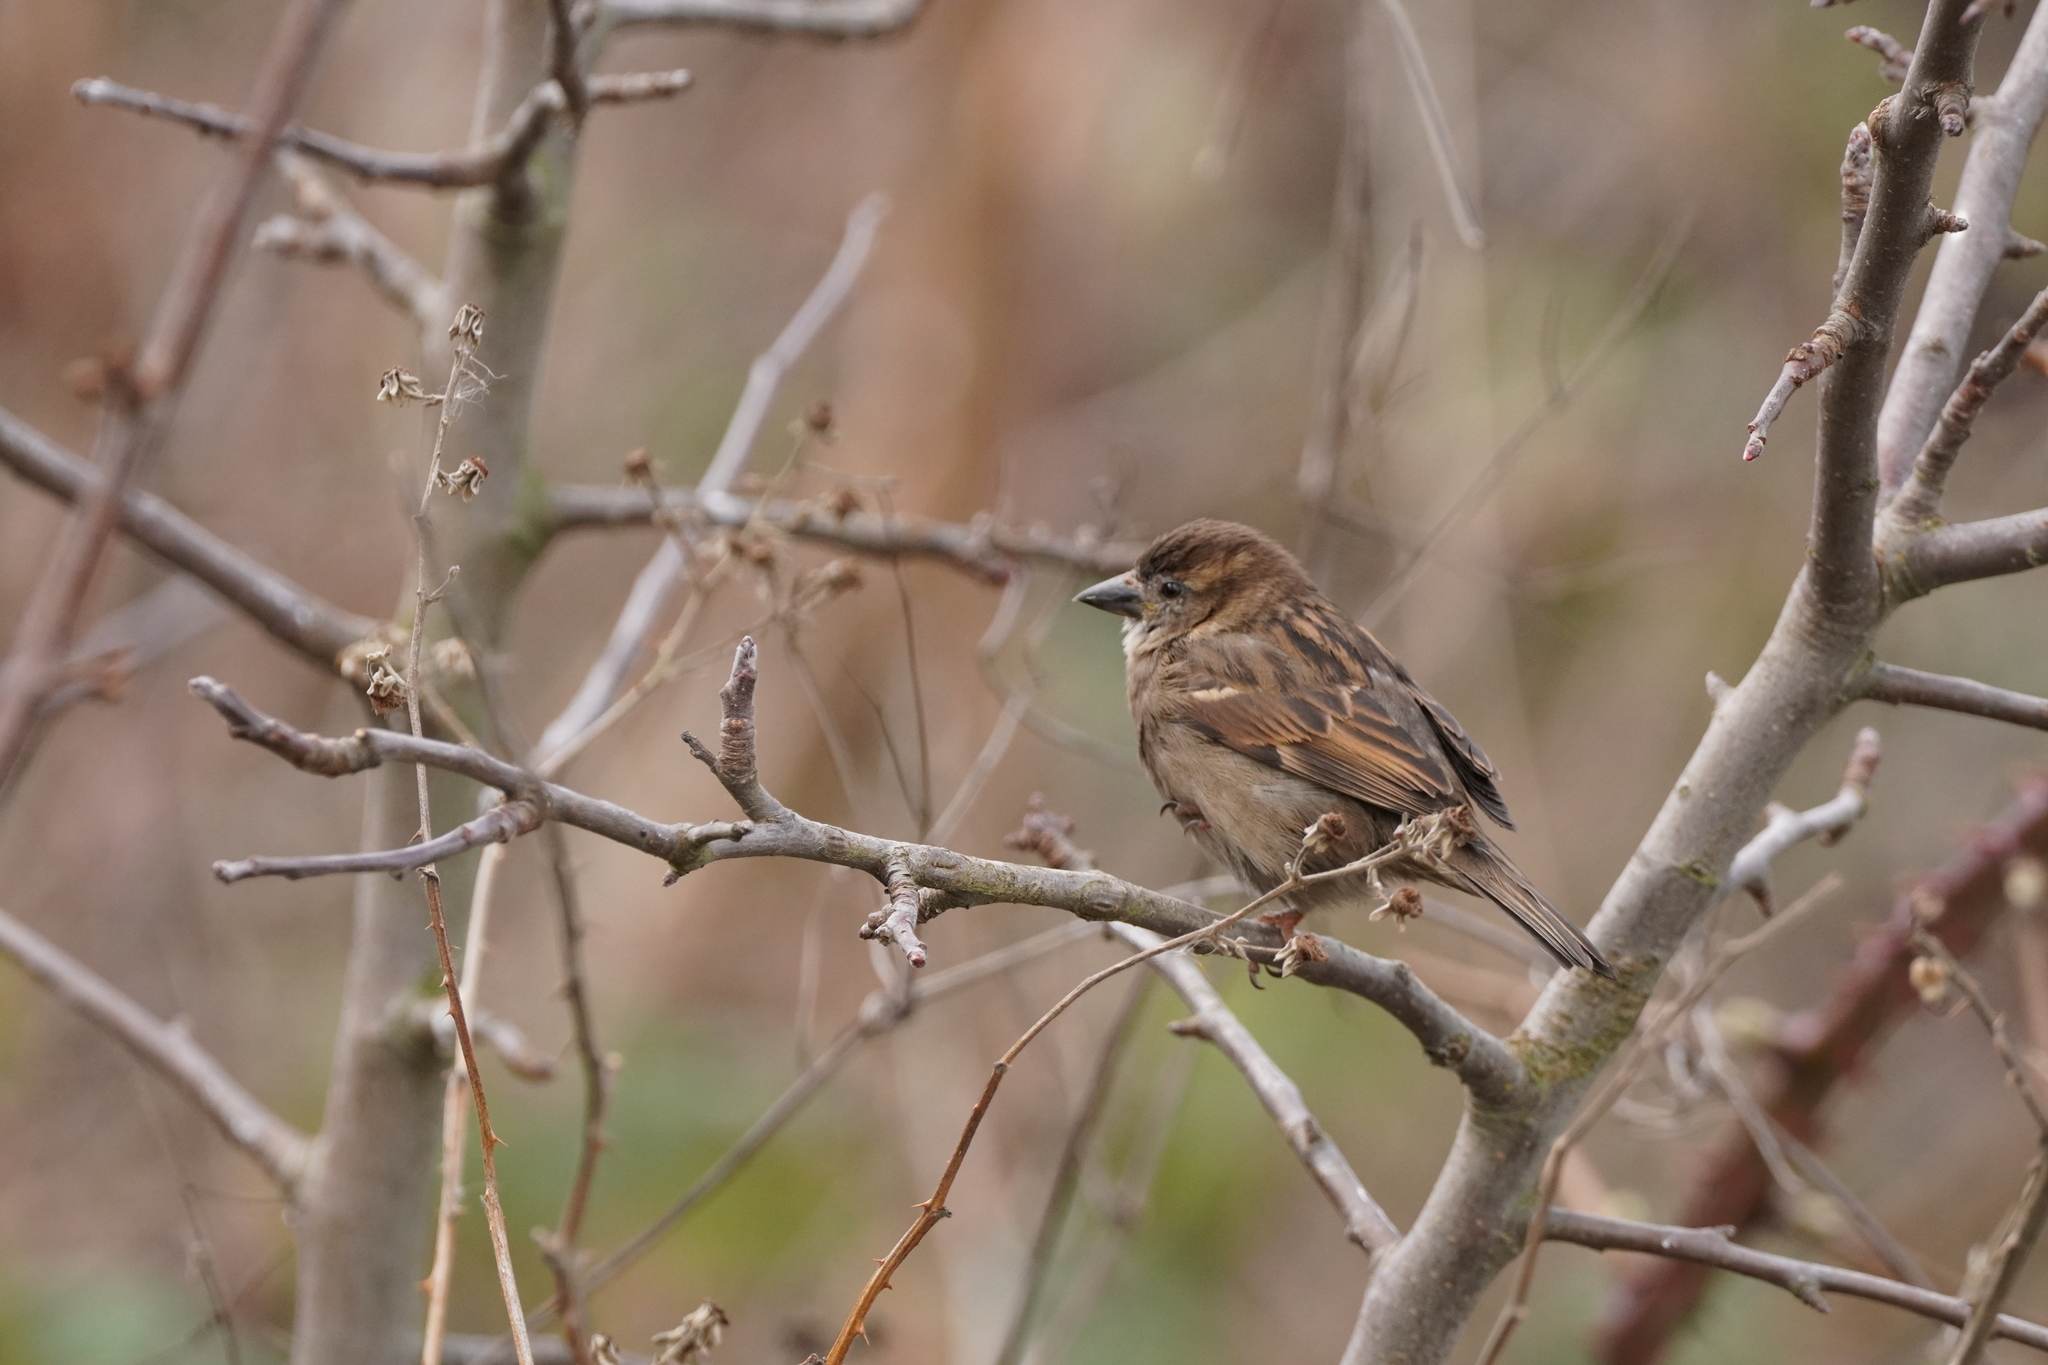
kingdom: Animalia
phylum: Chordata
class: Aves
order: Passeriformes
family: Passeridae
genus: Passer
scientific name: Passer domesticus
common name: House sparrow
